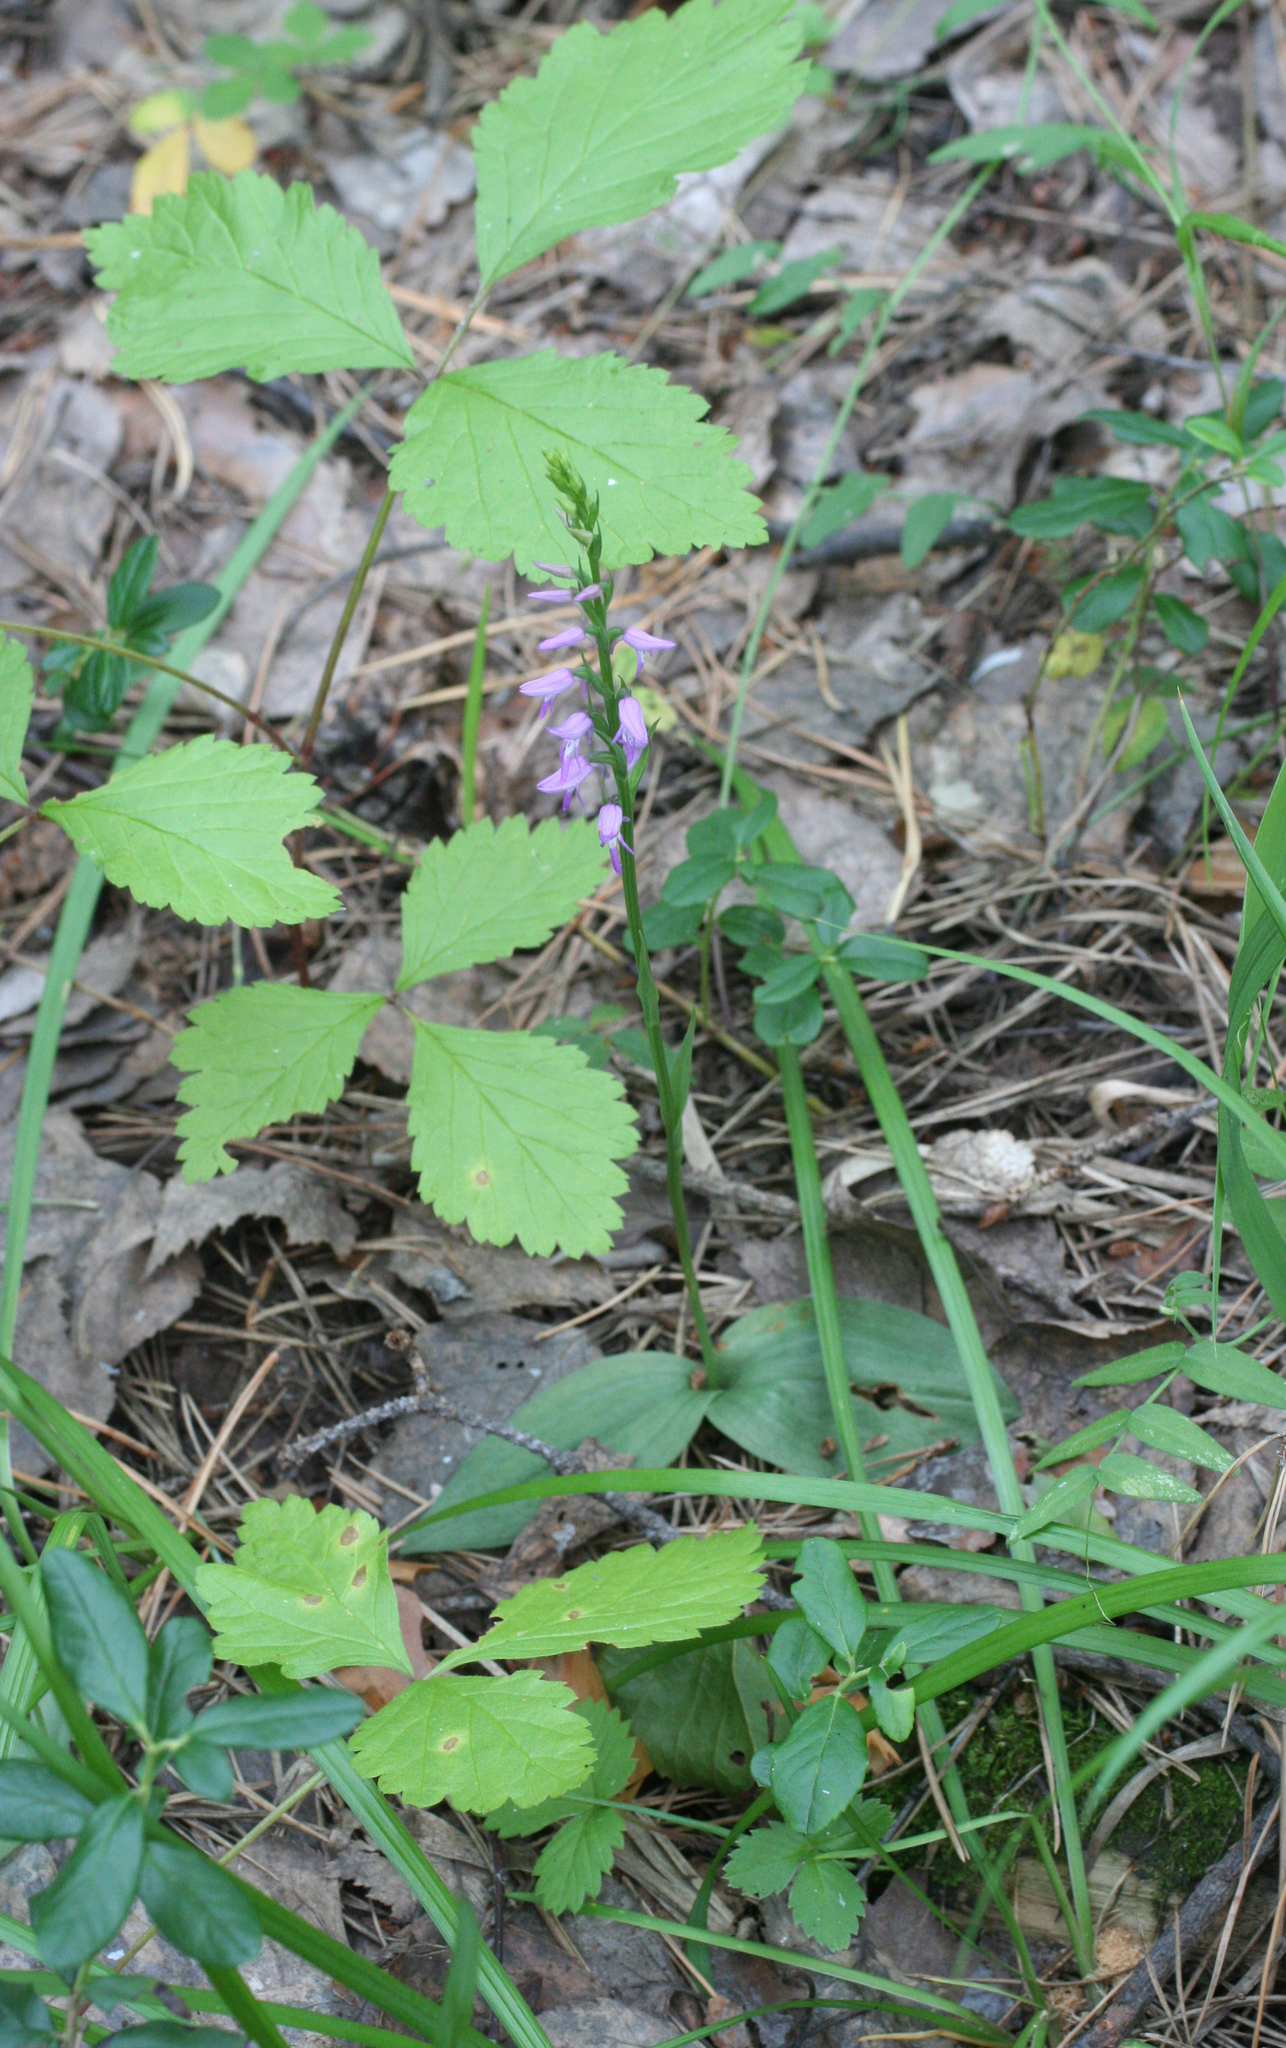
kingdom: Plantae
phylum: Tracheophyta
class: Liliopsida
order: Asparagales
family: Orchidaceae
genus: Hemipilia
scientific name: Hemipilia cucullata
